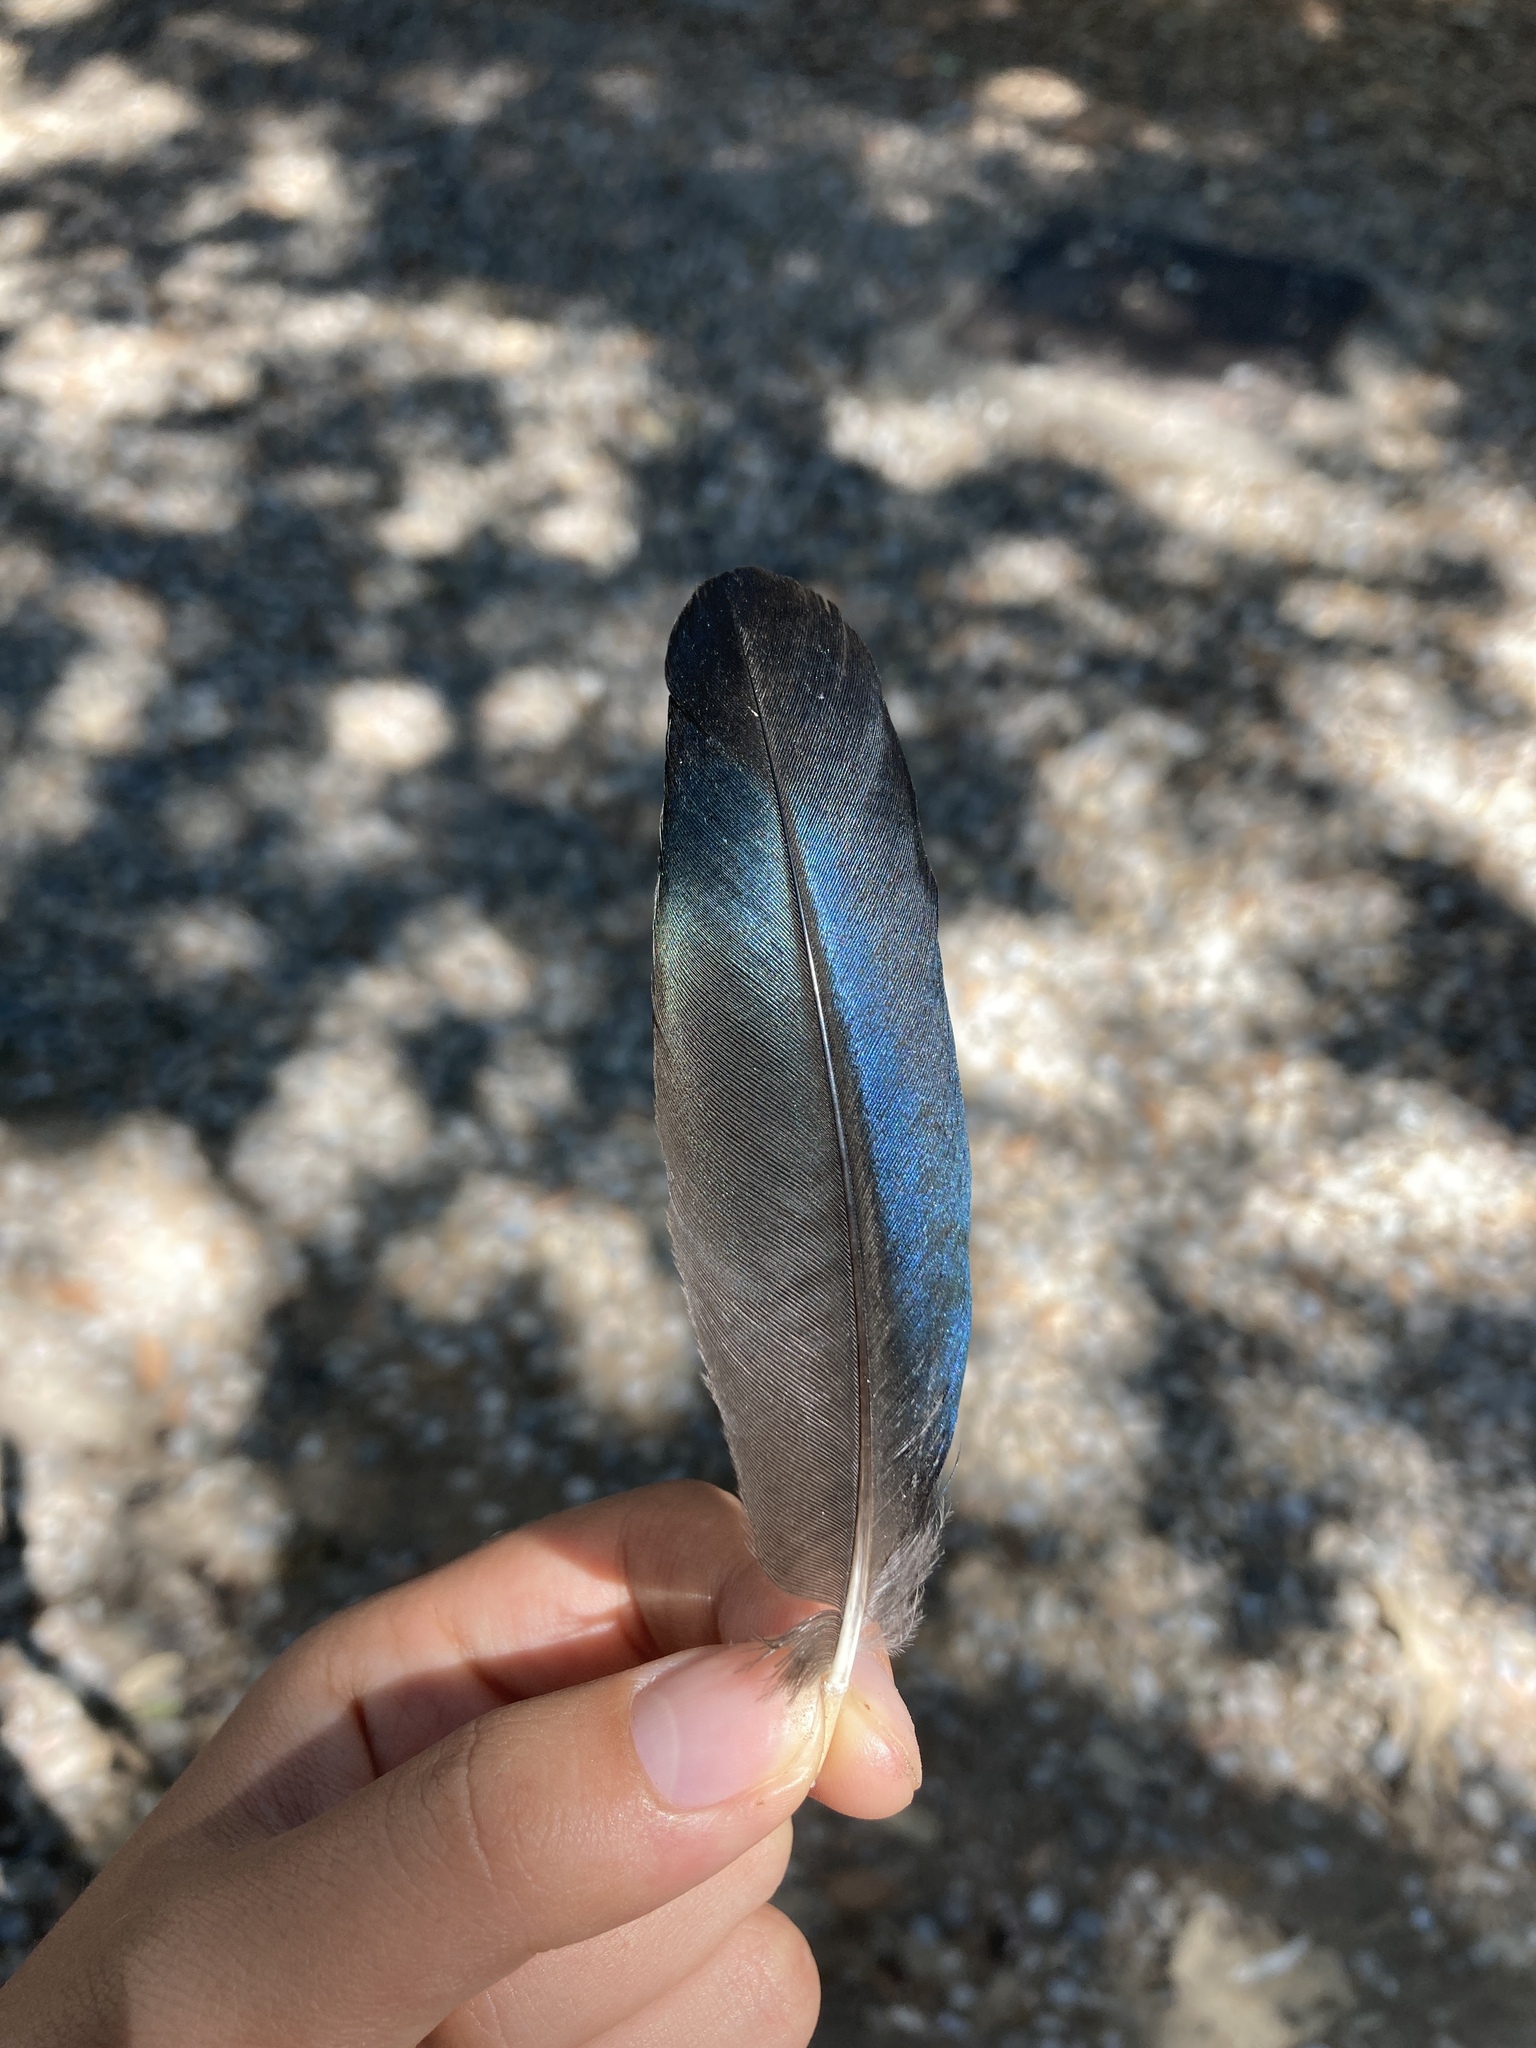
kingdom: Animalia
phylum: Chordata
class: Aves
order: Passeriformes
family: Corvidae
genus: Pica
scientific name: Pica pica
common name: Eurasian magpie
